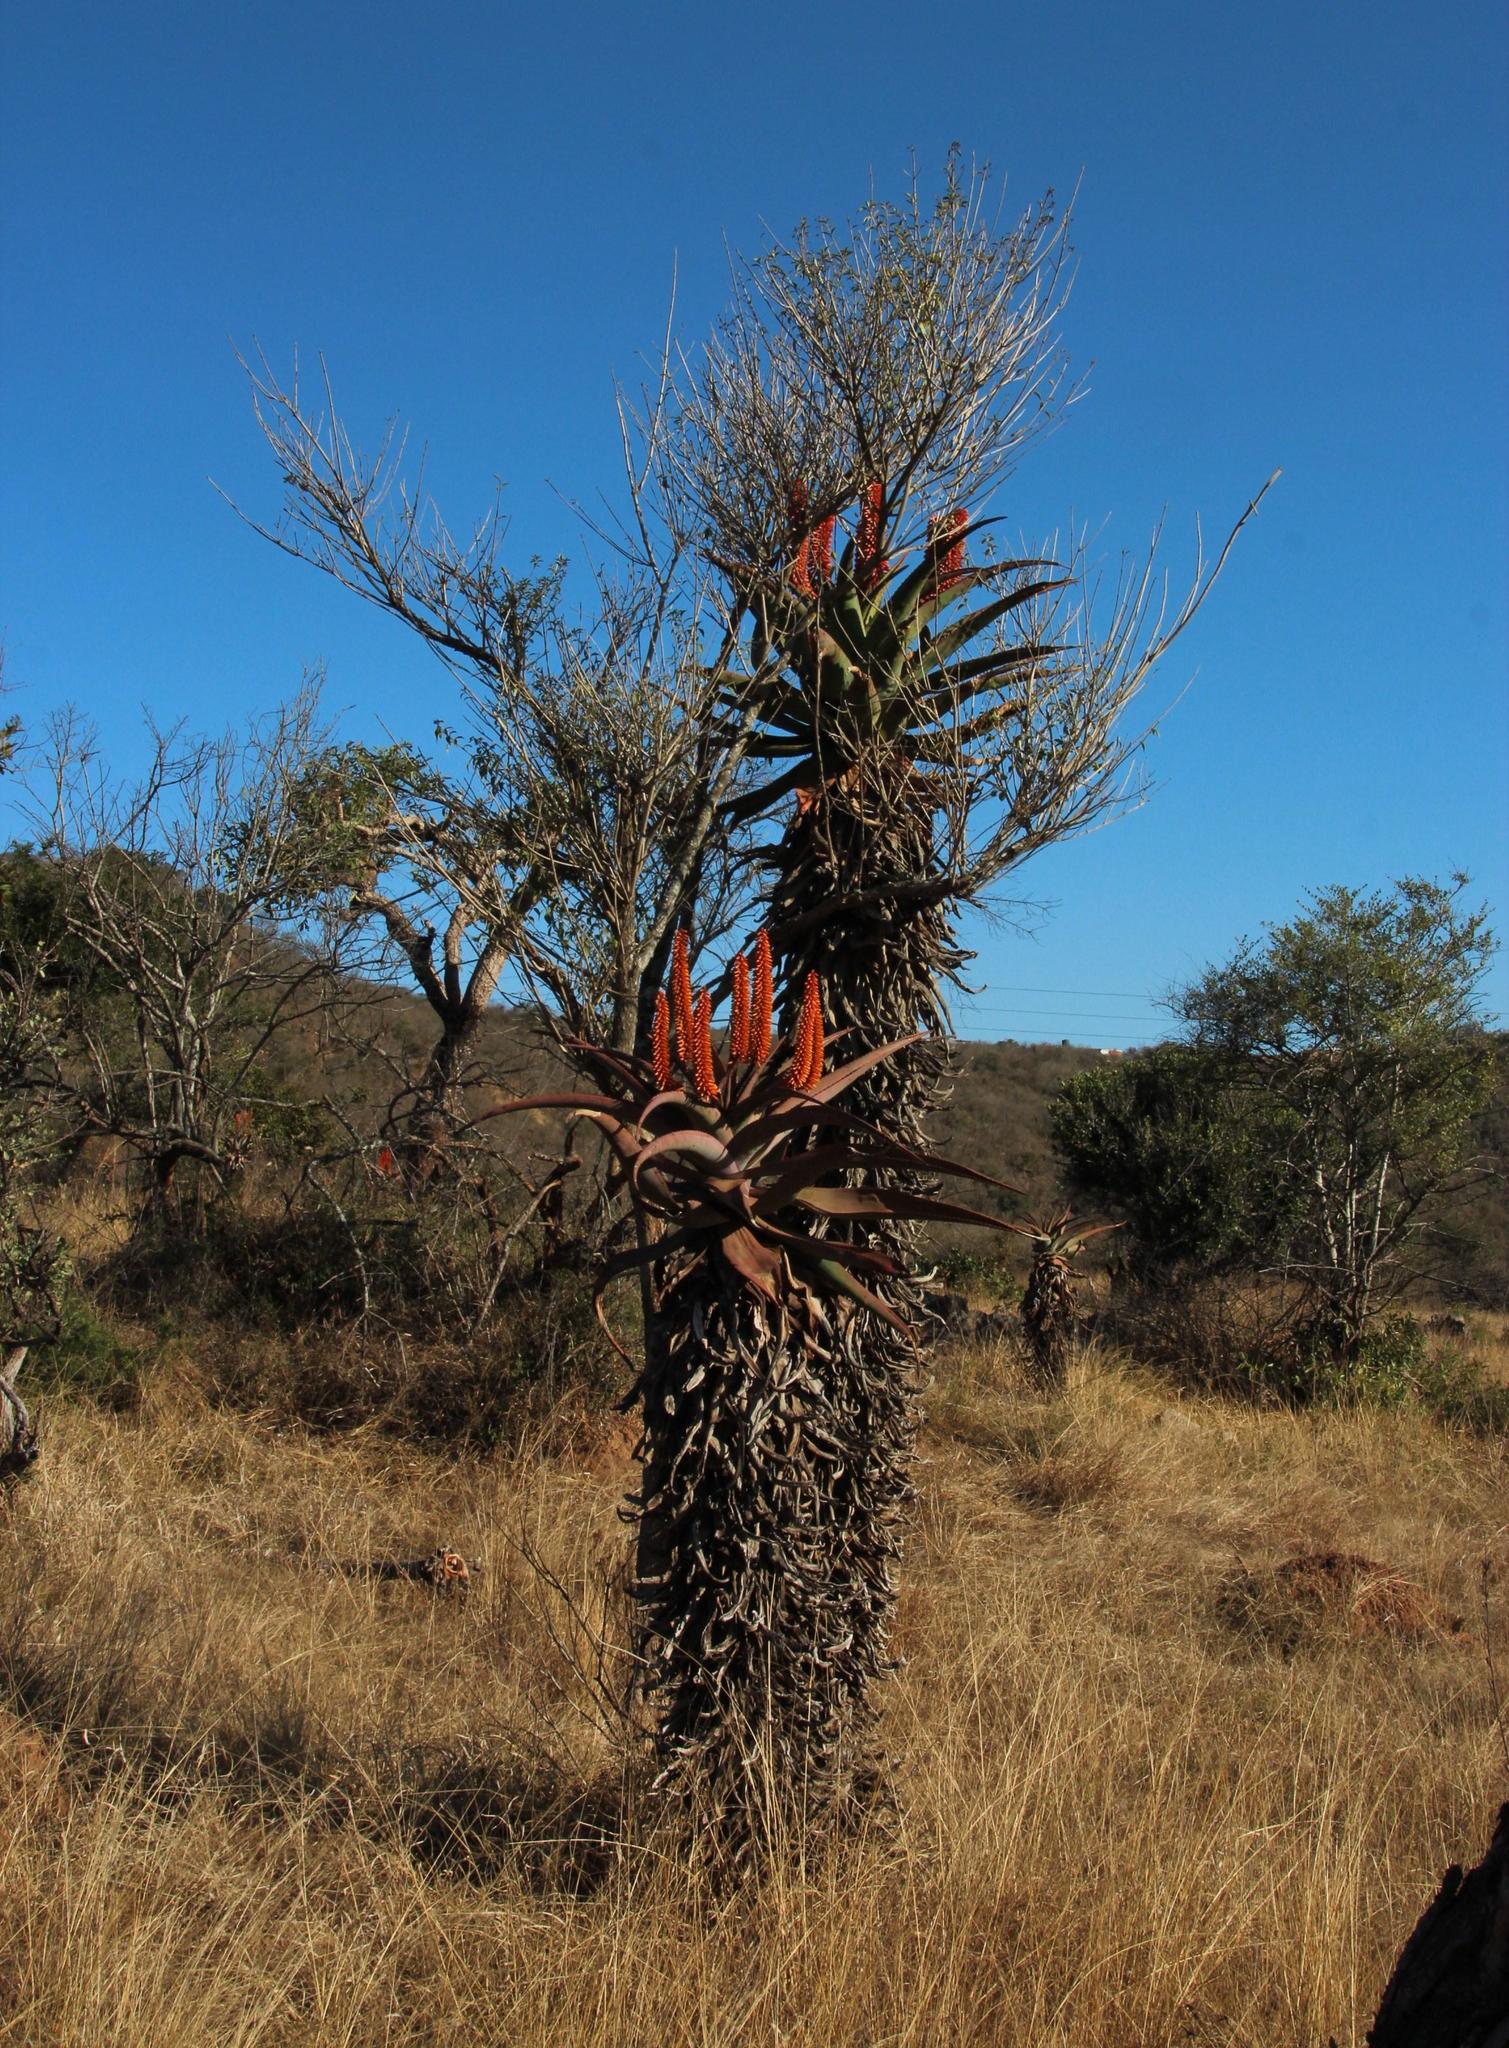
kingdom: Plantae
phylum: Tracheophyta
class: Magnoliopsida
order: Lamiales
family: Lamiaceae
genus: Volkameria
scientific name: Volkameria glabra
